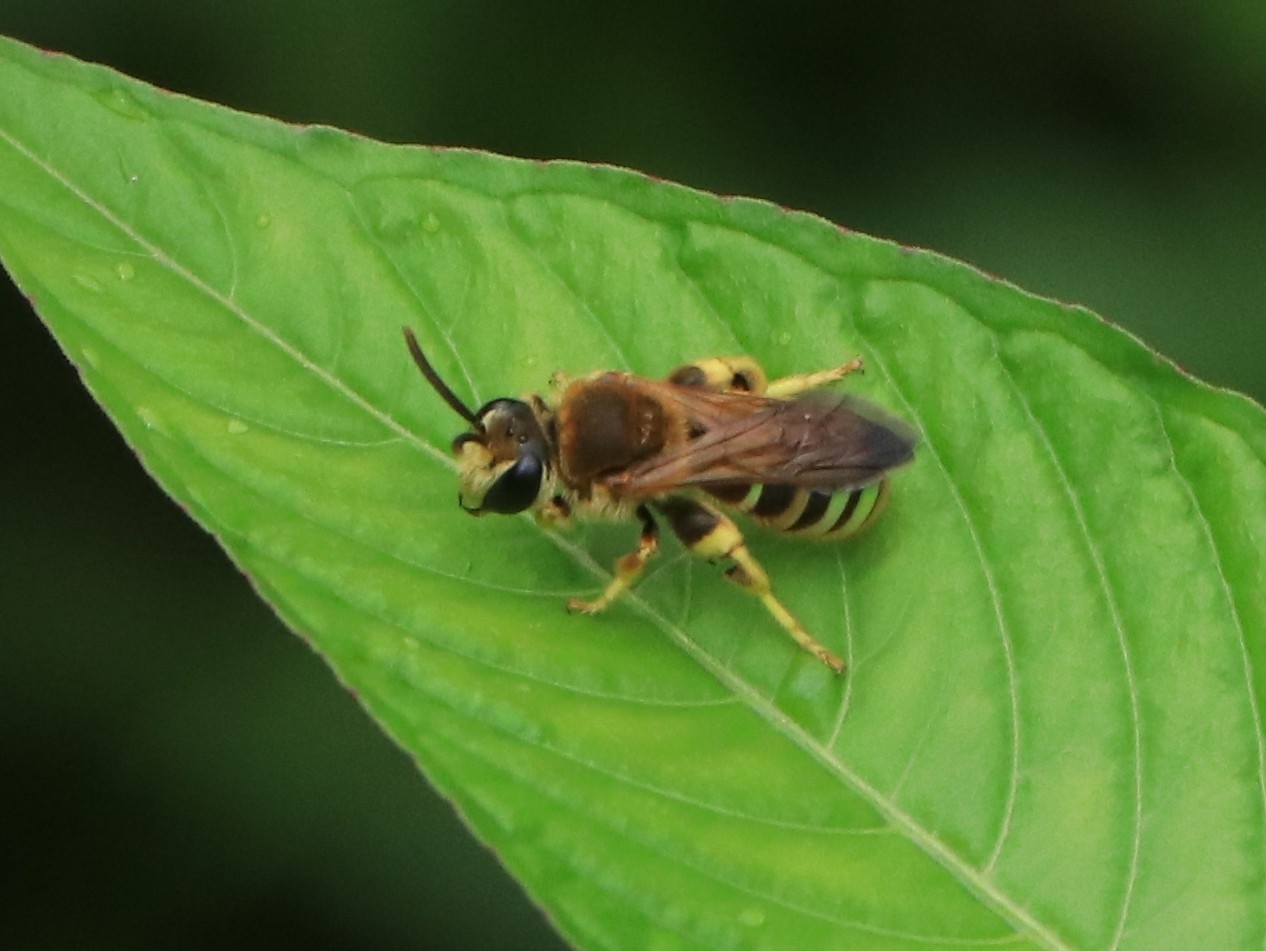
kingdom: Animalia
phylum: Arthropoda
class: Insecta
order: Hymenoptera
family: Halictidae
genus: Nomia
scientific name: Nomia crassipes
